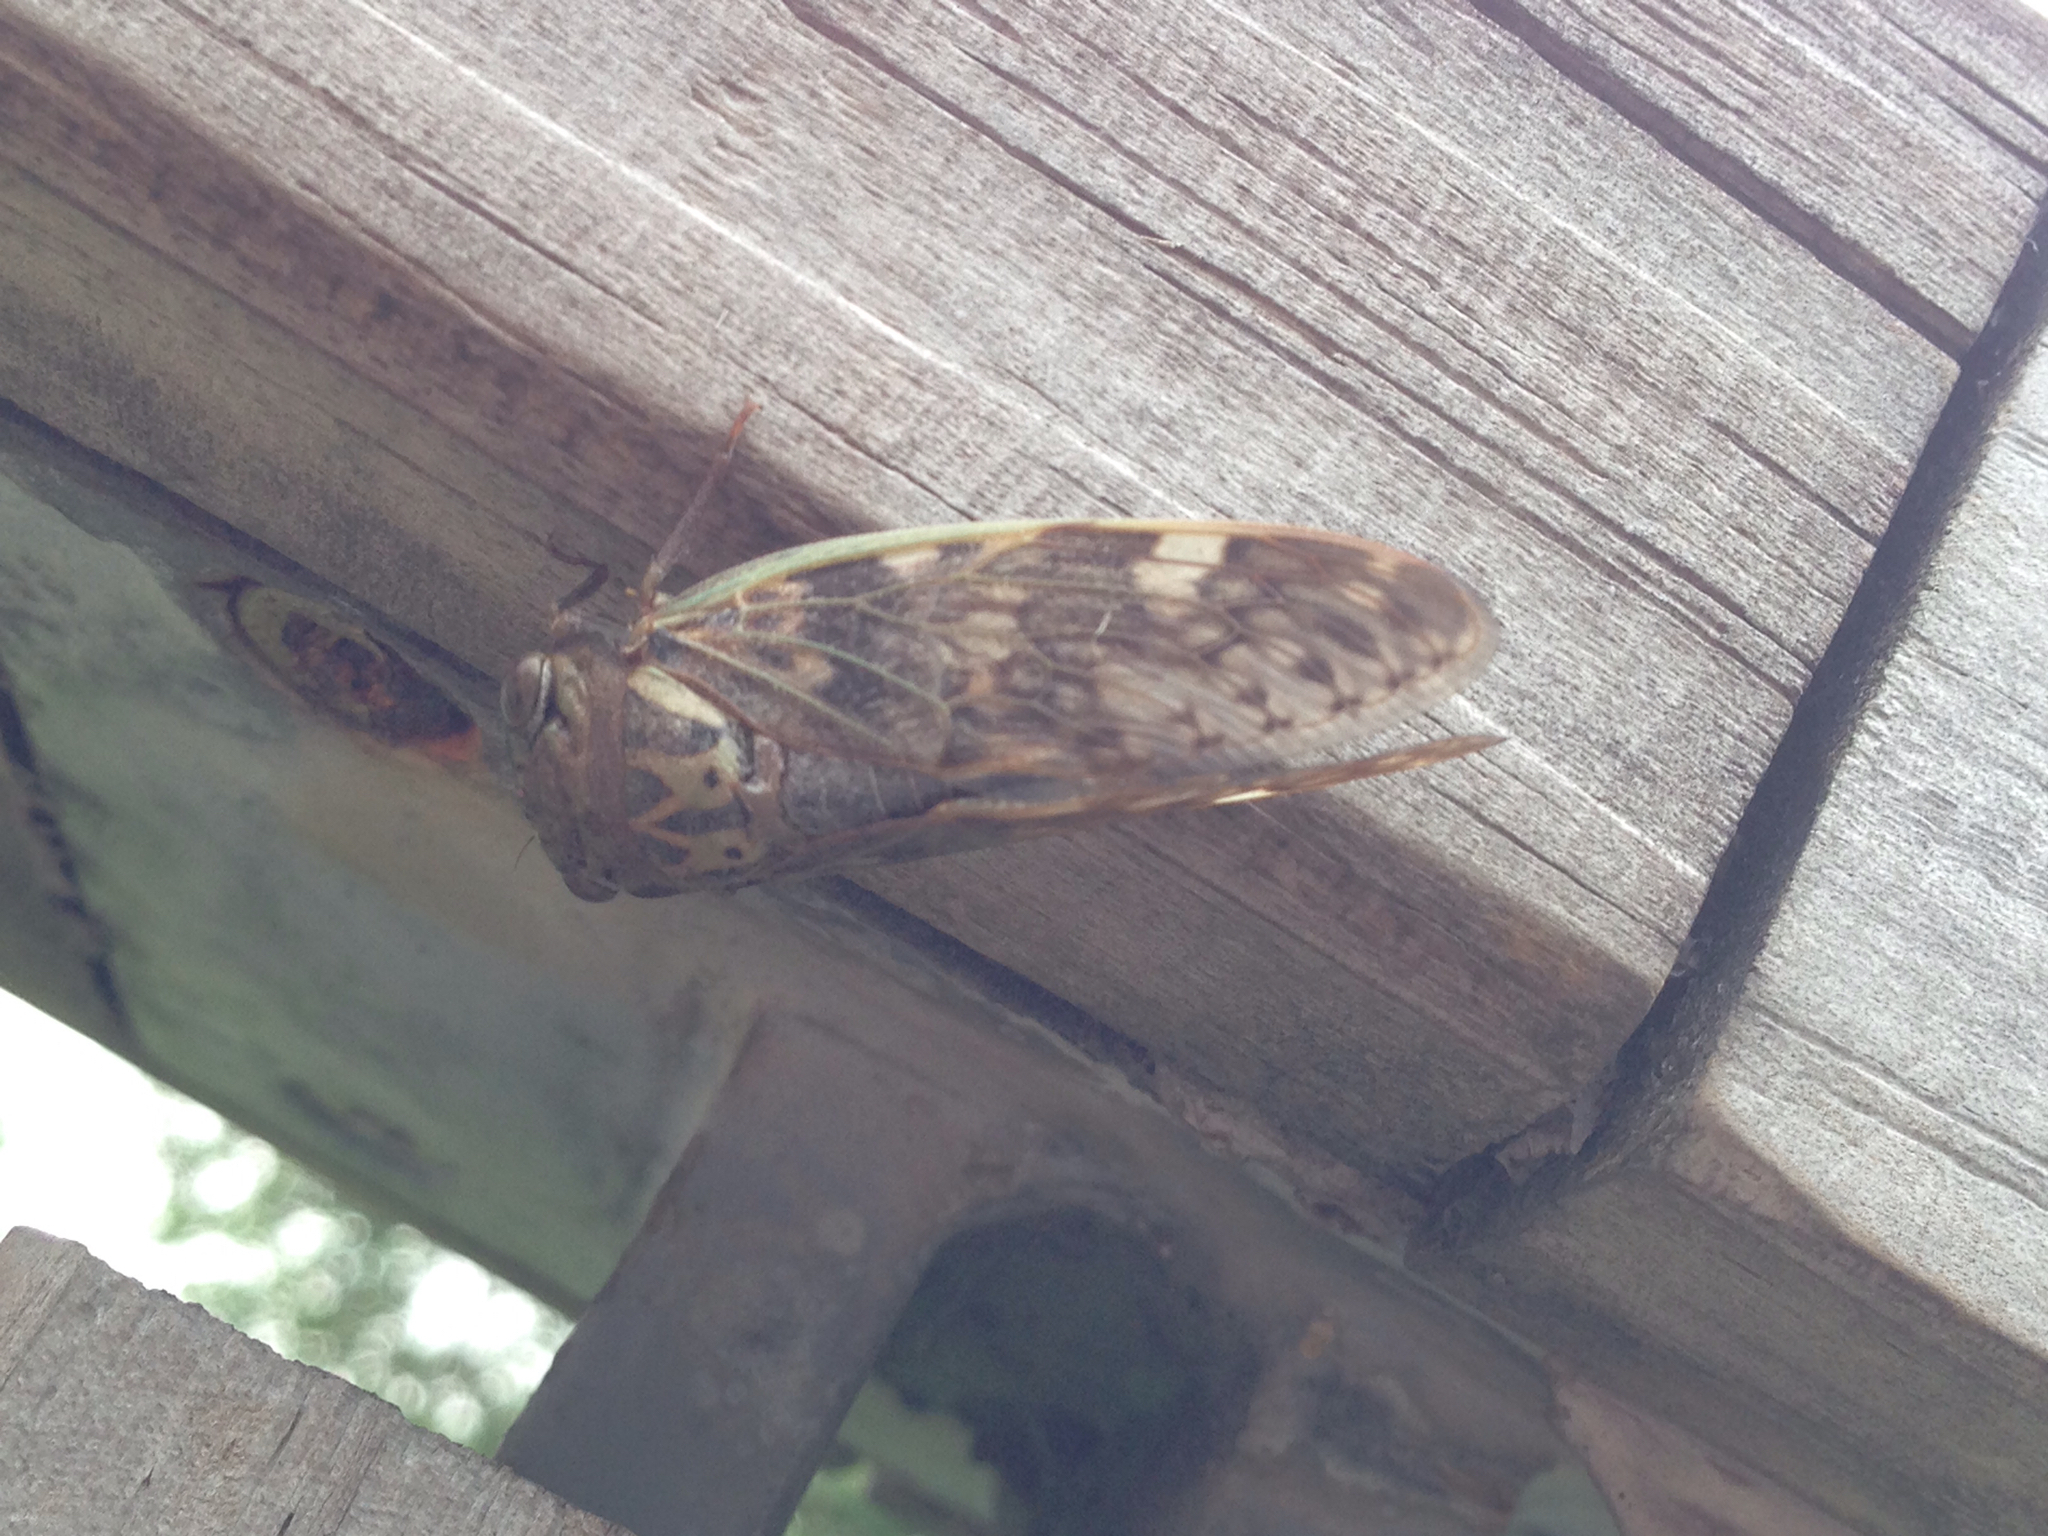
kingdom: Animalia
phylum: Arthropoda
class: Insecta
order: Hemiptera
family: Cicadidae
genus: Platypleura
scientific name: Platypleura hilpa
